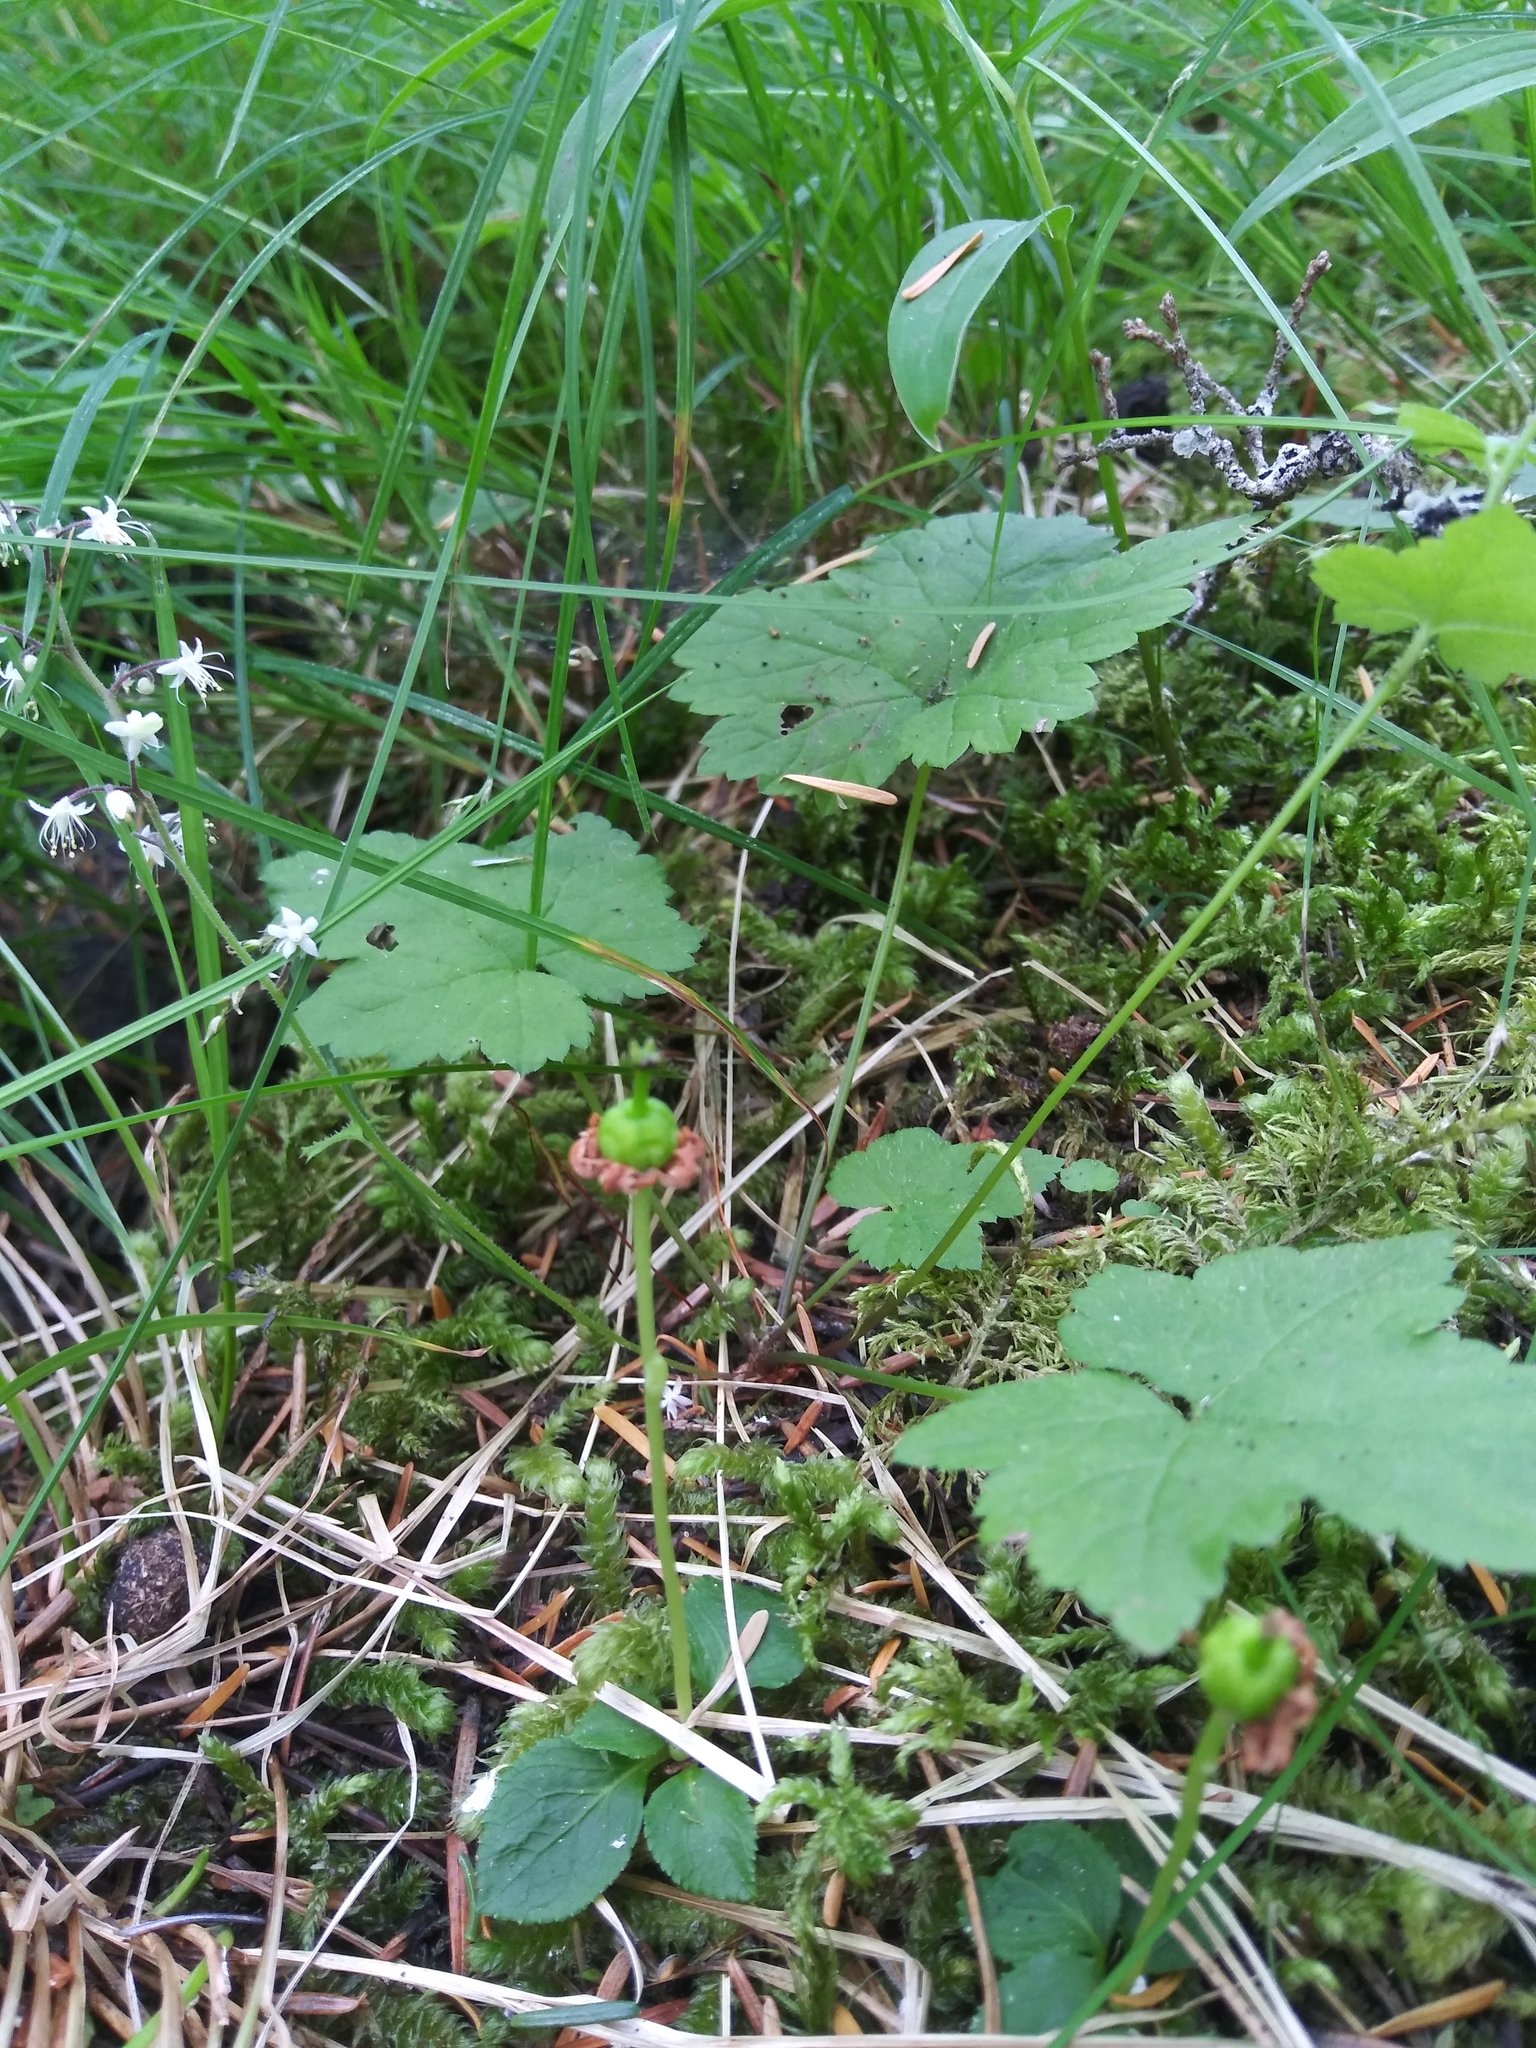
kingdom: Plantae
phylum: Tracheophyta
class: Magnoliopsida
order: Ericales
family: Ericaceae
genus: Moneses
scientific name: Moneses uniflora
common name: One-flowered wintergreen
